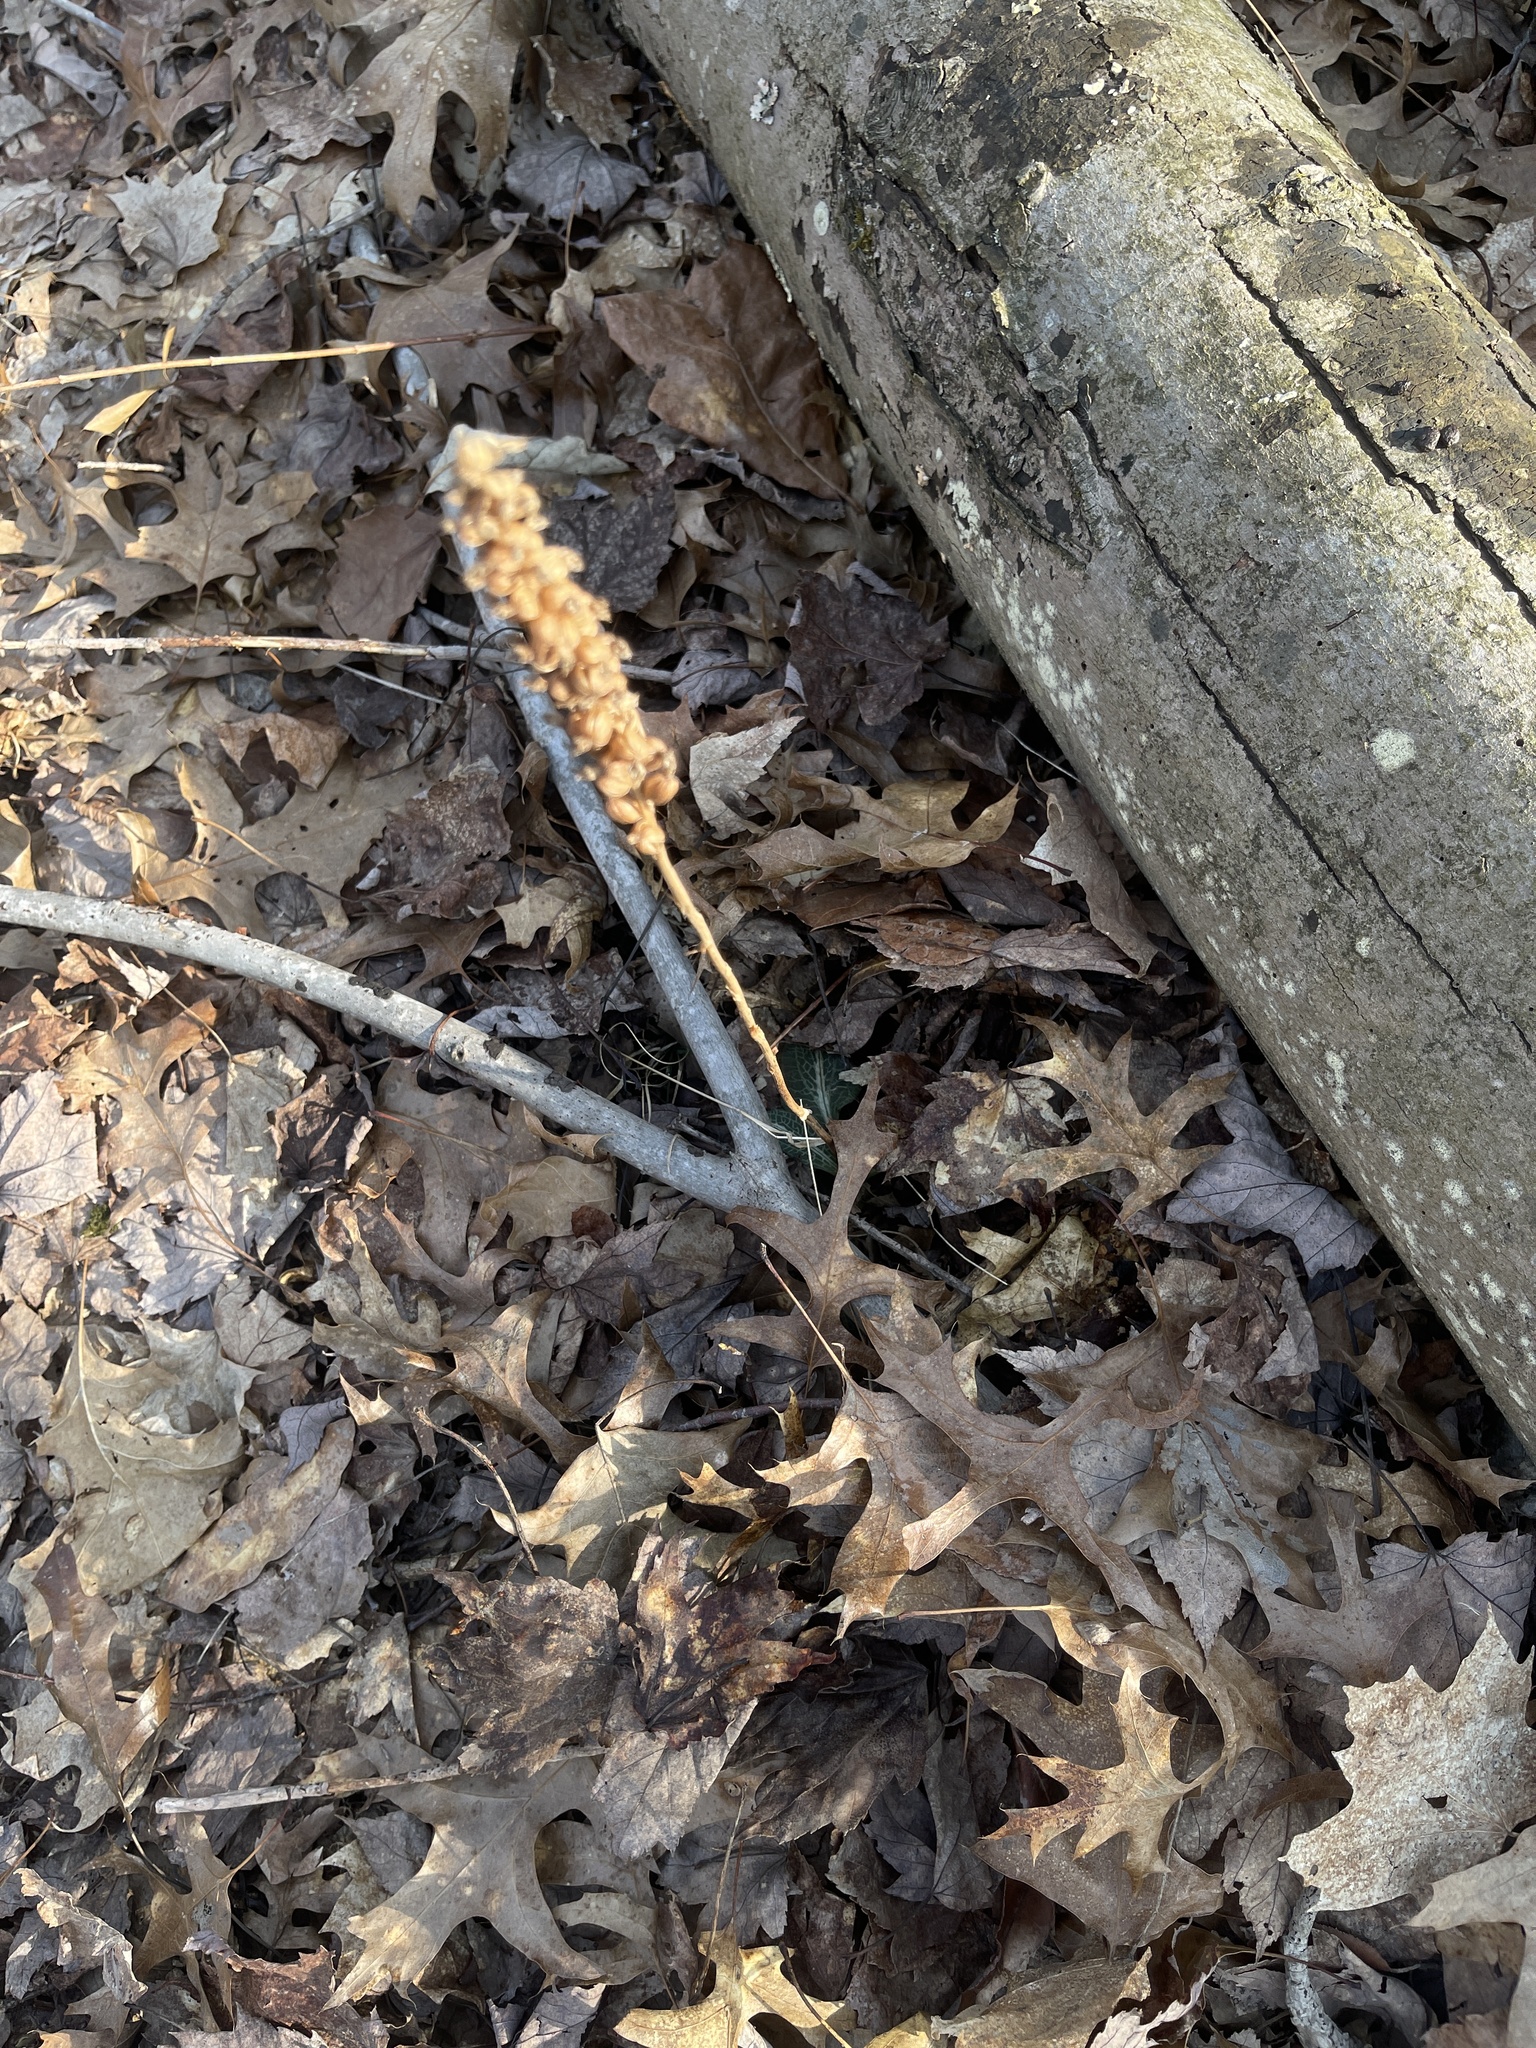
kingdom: Plantae
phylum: Tracheophyta
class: Liliopsida
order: Asparagales
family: Orchidaceae
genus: Goodyera
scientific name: Goodyera pubescens
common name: Downy rattlesnake-plantain
